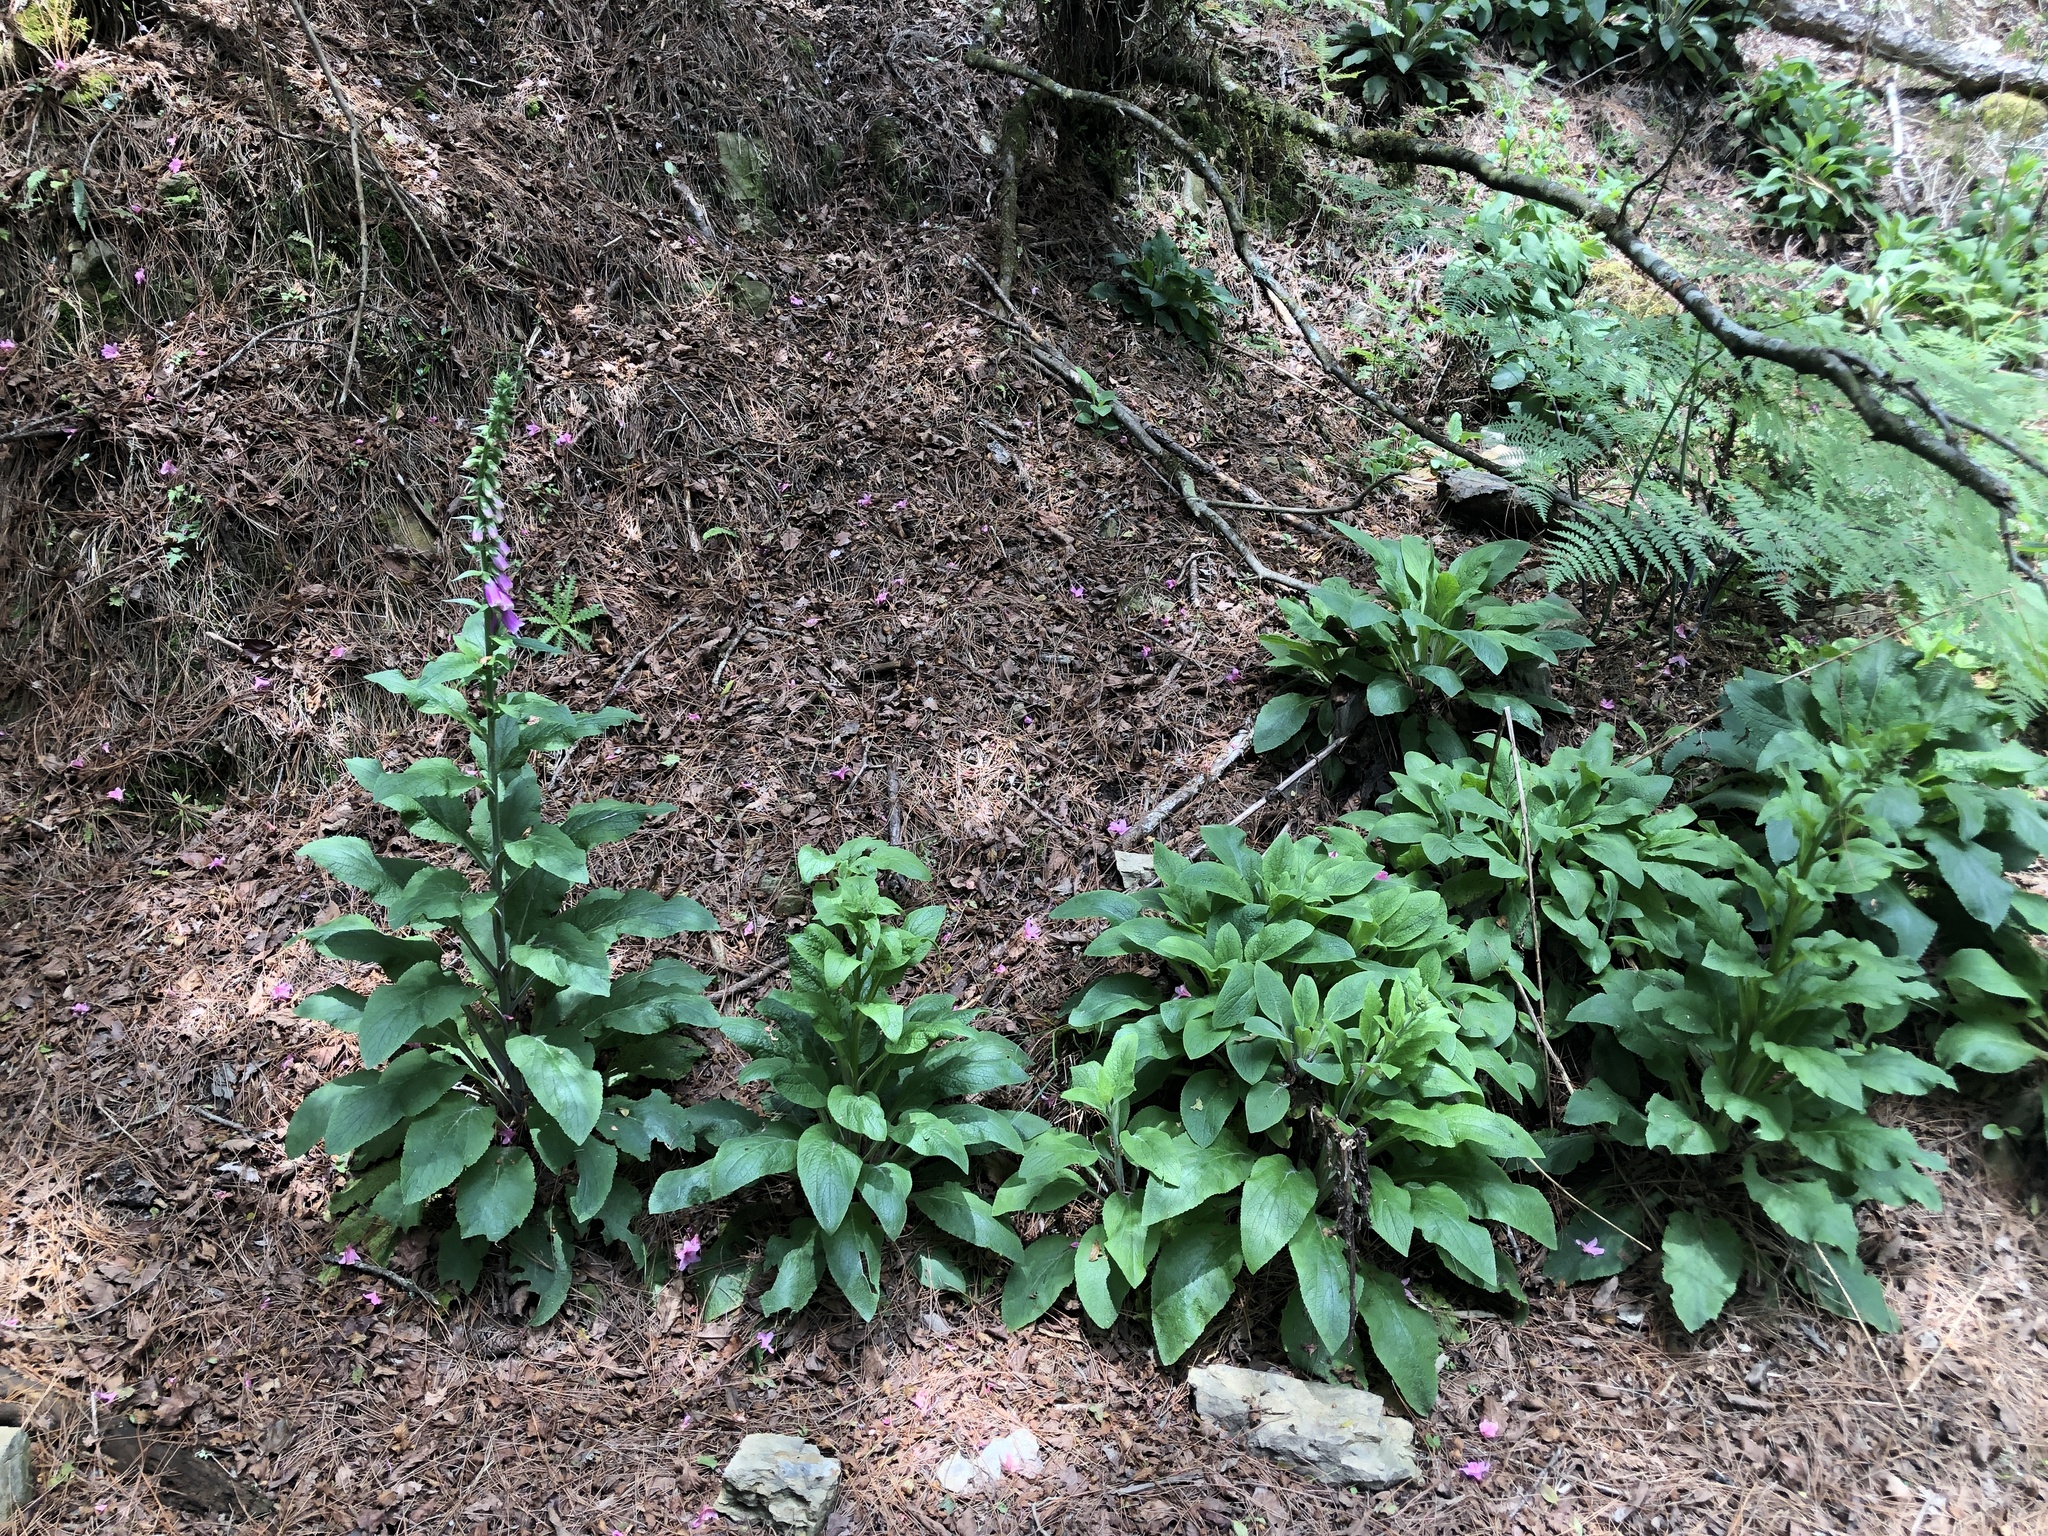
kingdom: Plantae
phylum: Tracheophyta
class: Magnoliopsida
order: Lamiales
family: Plantaginaceae
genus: Digitalis
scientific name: Digitalis purpurea
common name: Foxglove
